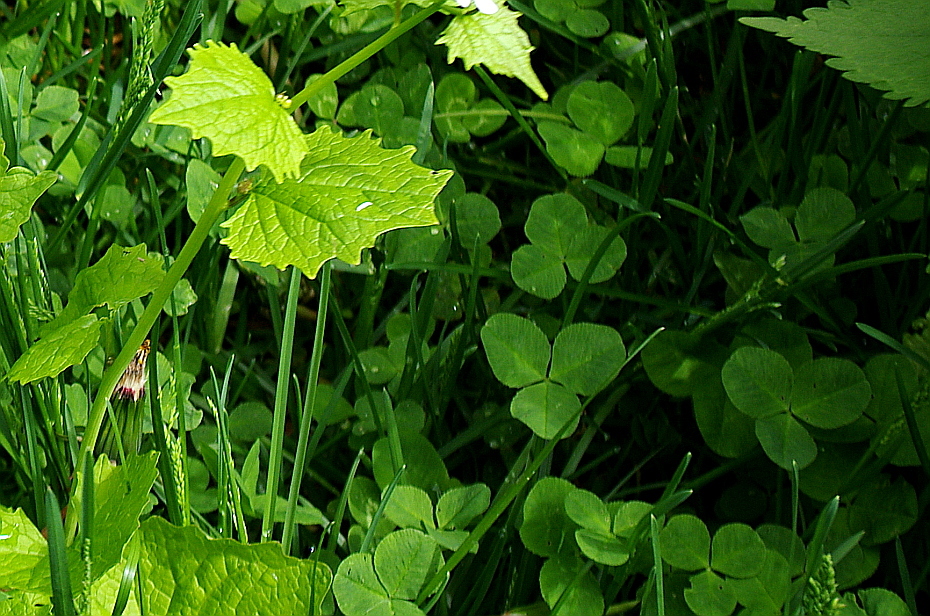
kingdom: Plantae
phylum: Tracheophyta
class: Magnoliopsida
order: Fabales
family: Fabaceae
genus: Trifolium
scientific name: Trifolium repens
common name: White clover
